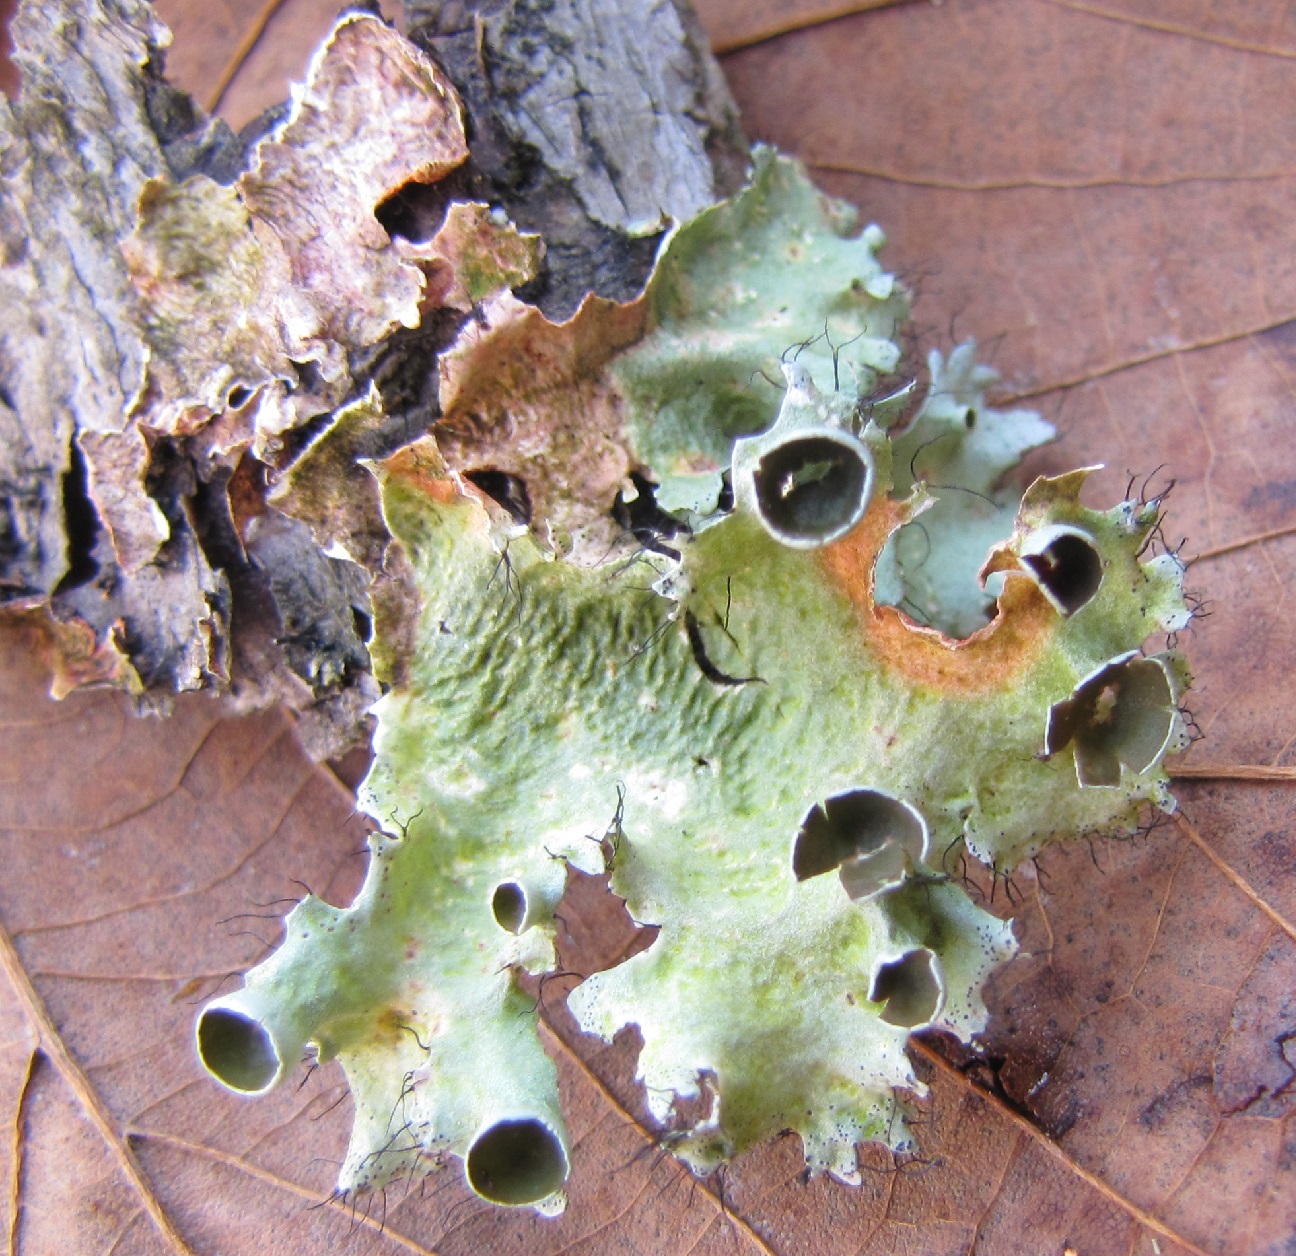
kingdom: Fungi
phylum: Ascomycota
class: Lecanoromycetes
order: Lecanorales
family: Parmeliaceae
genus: Parmotrema
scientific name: Parmotrema perforatum
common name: Perforated ruffle lichen
